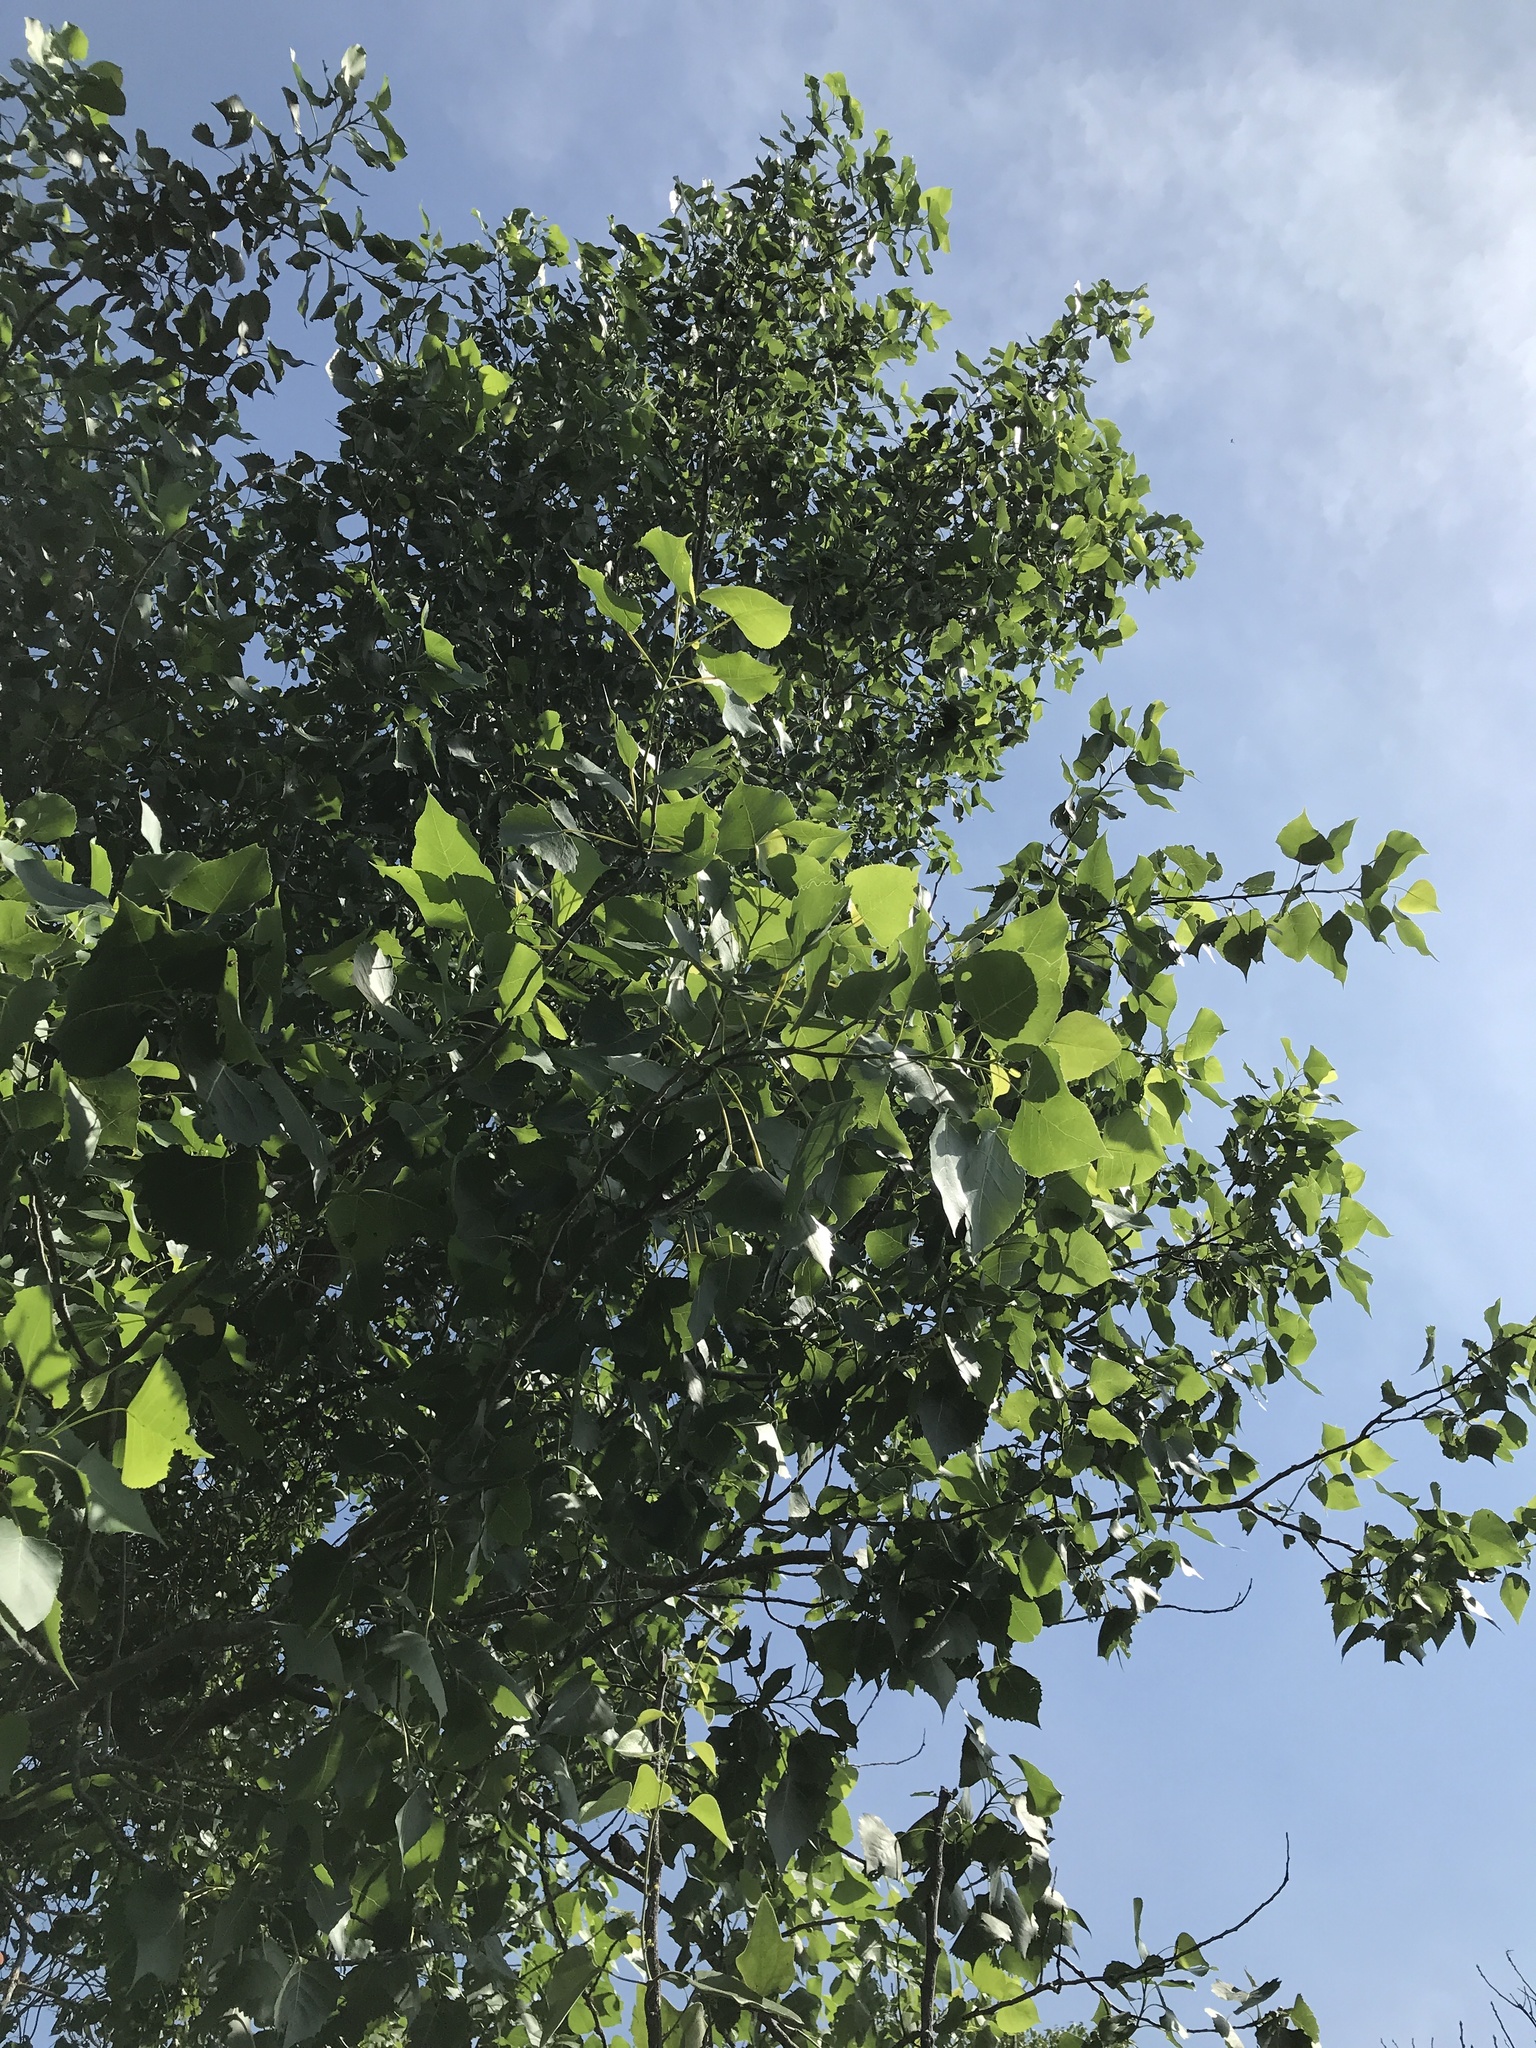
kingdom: Plantae
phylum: Tracheophyta
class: Magnoliopsida
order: Malpighiales
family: Salicaceae
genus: Populus
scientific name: Populus deltoides
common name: Eastern cottonwood
